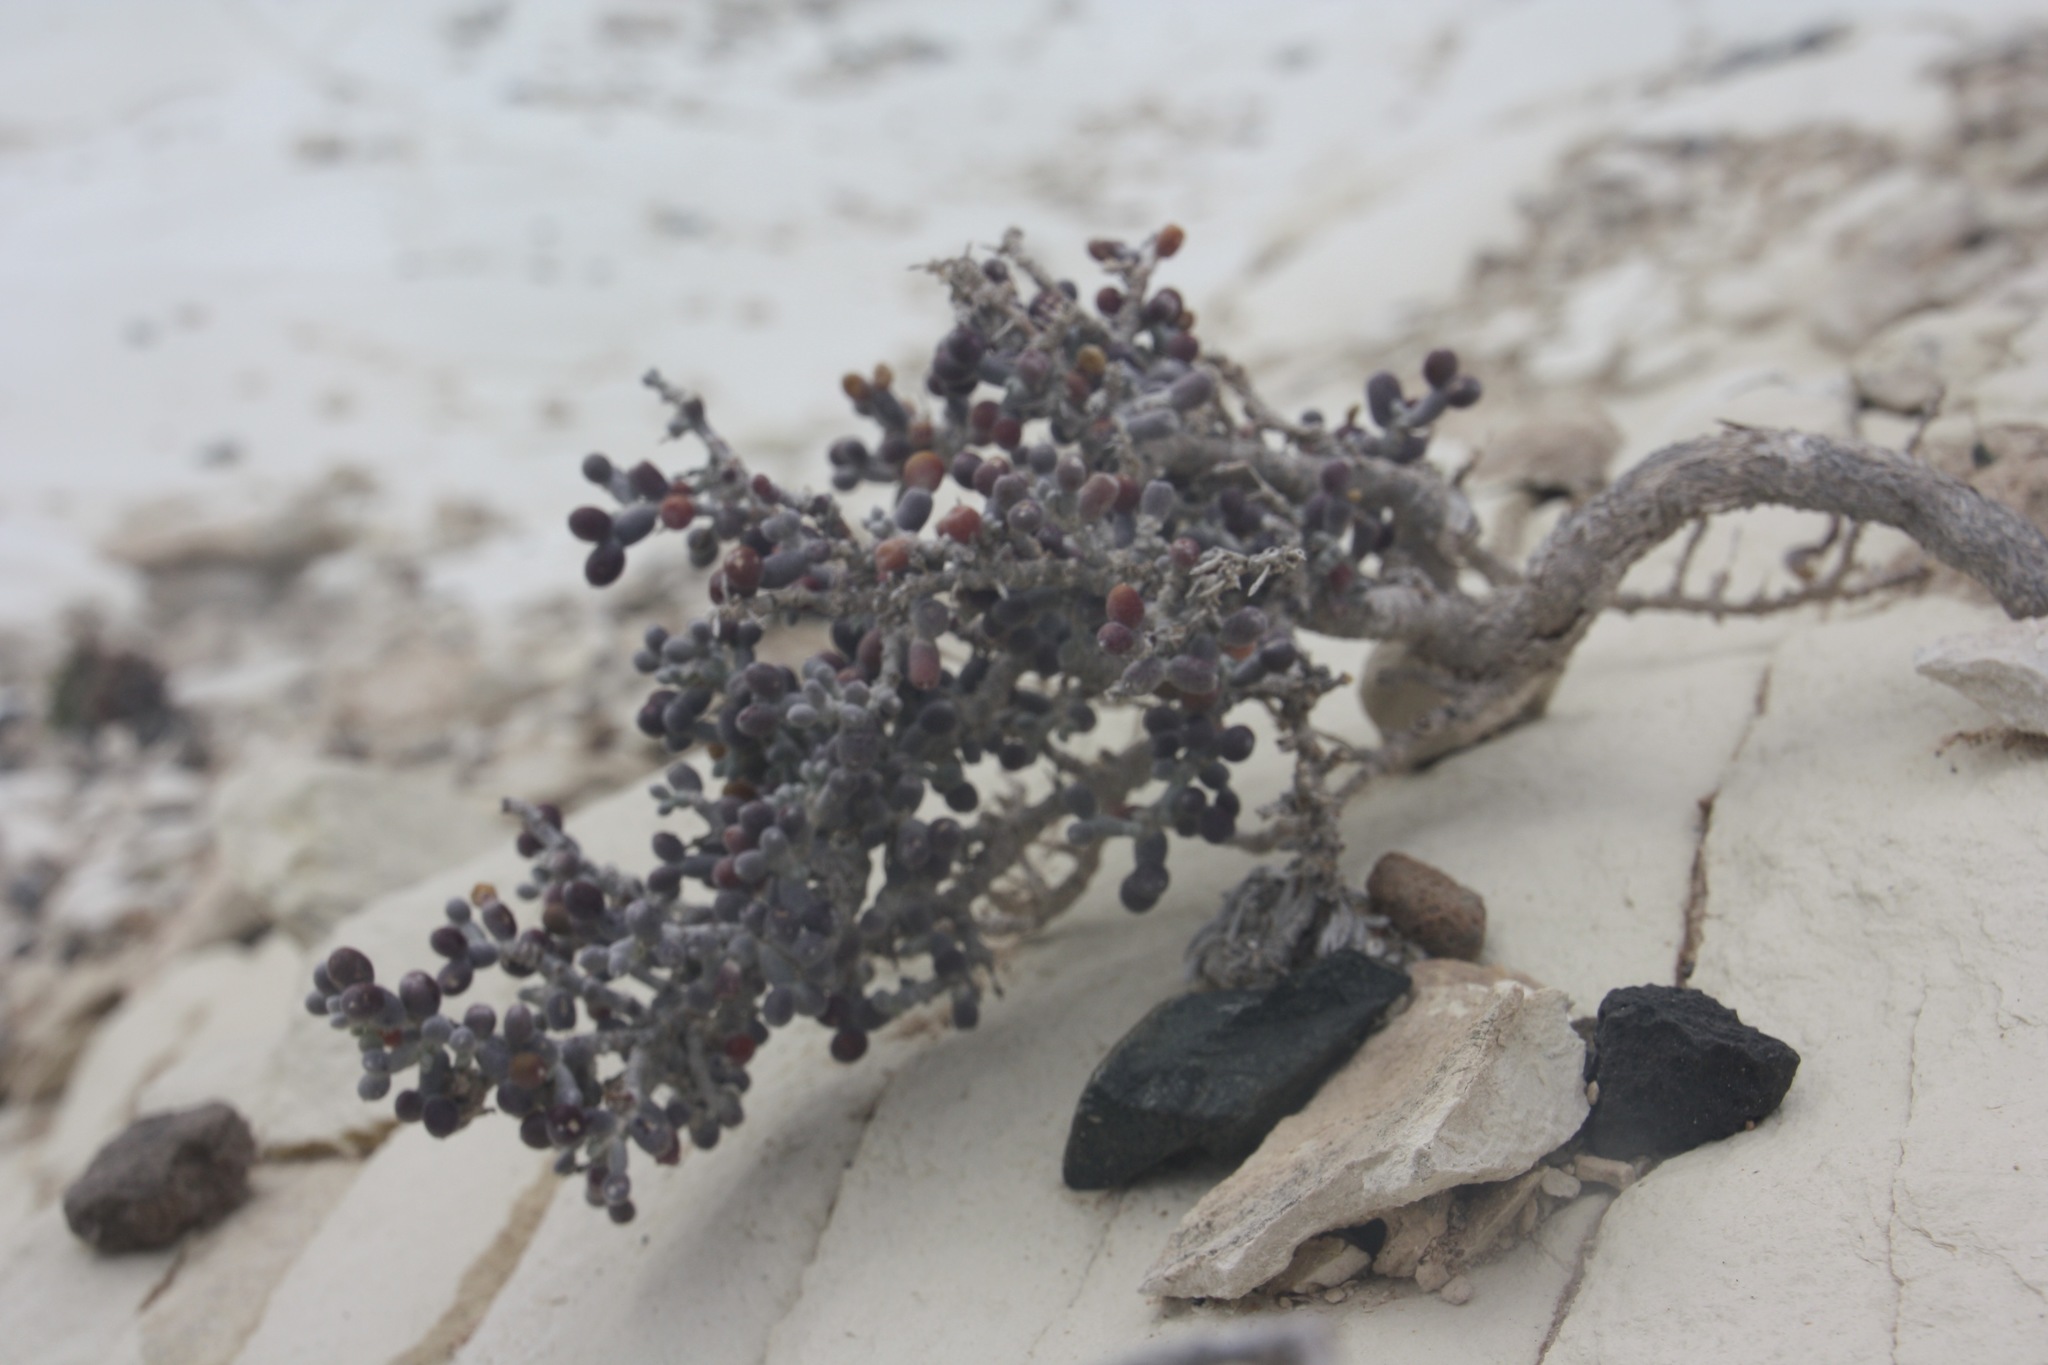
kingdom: Plantae
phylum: Tracheophyta
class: Magnoliopsida
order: Zygophyllales
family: Zygophyllaceae
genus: Tetraena
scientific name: Tetraena alba
